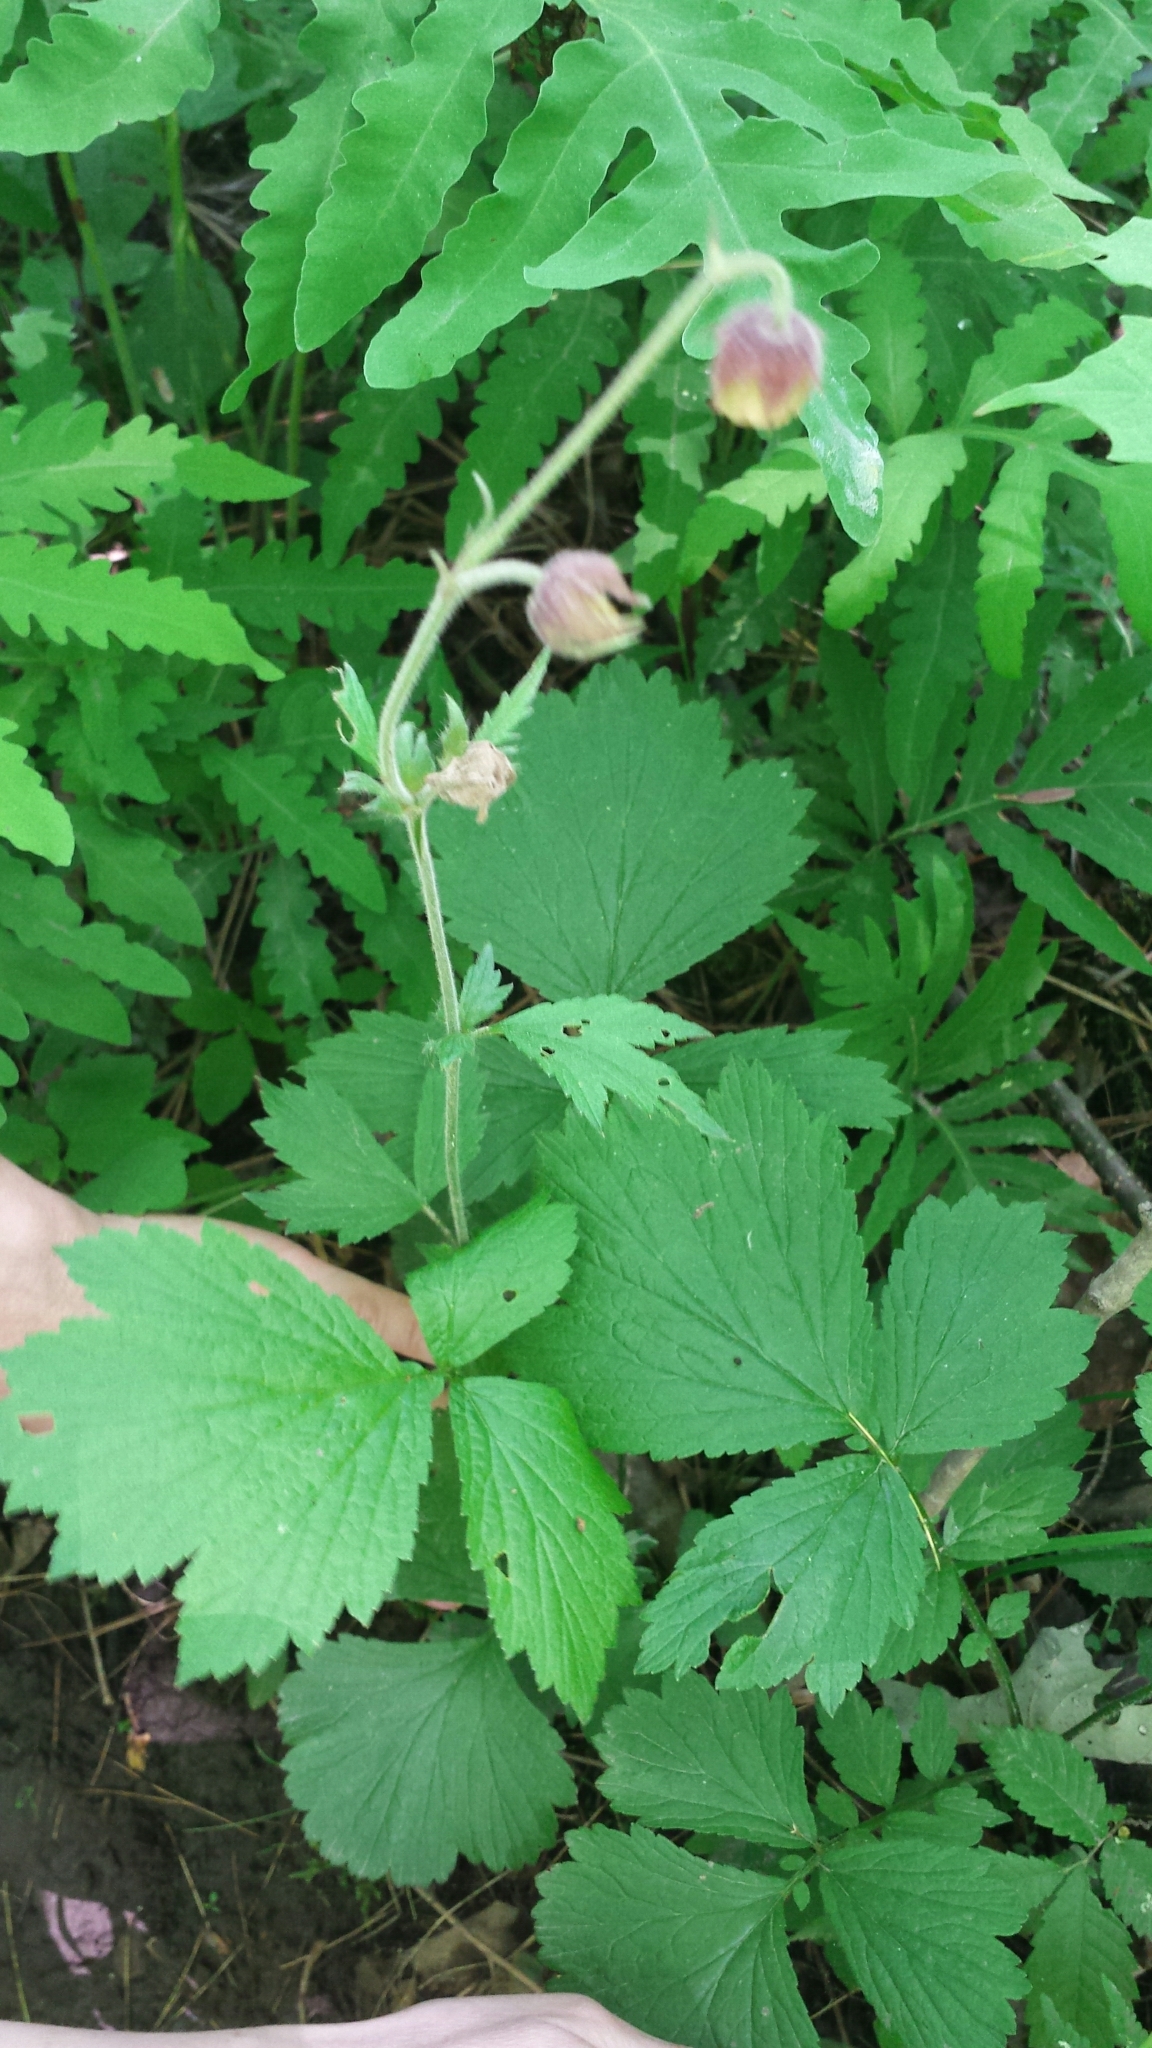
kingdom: Plantae
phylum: Tracheophyta
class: Magnoliopsida
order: Rosales
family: Rosaceae
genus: Geum
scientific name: Geum rivale
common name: Water avens
